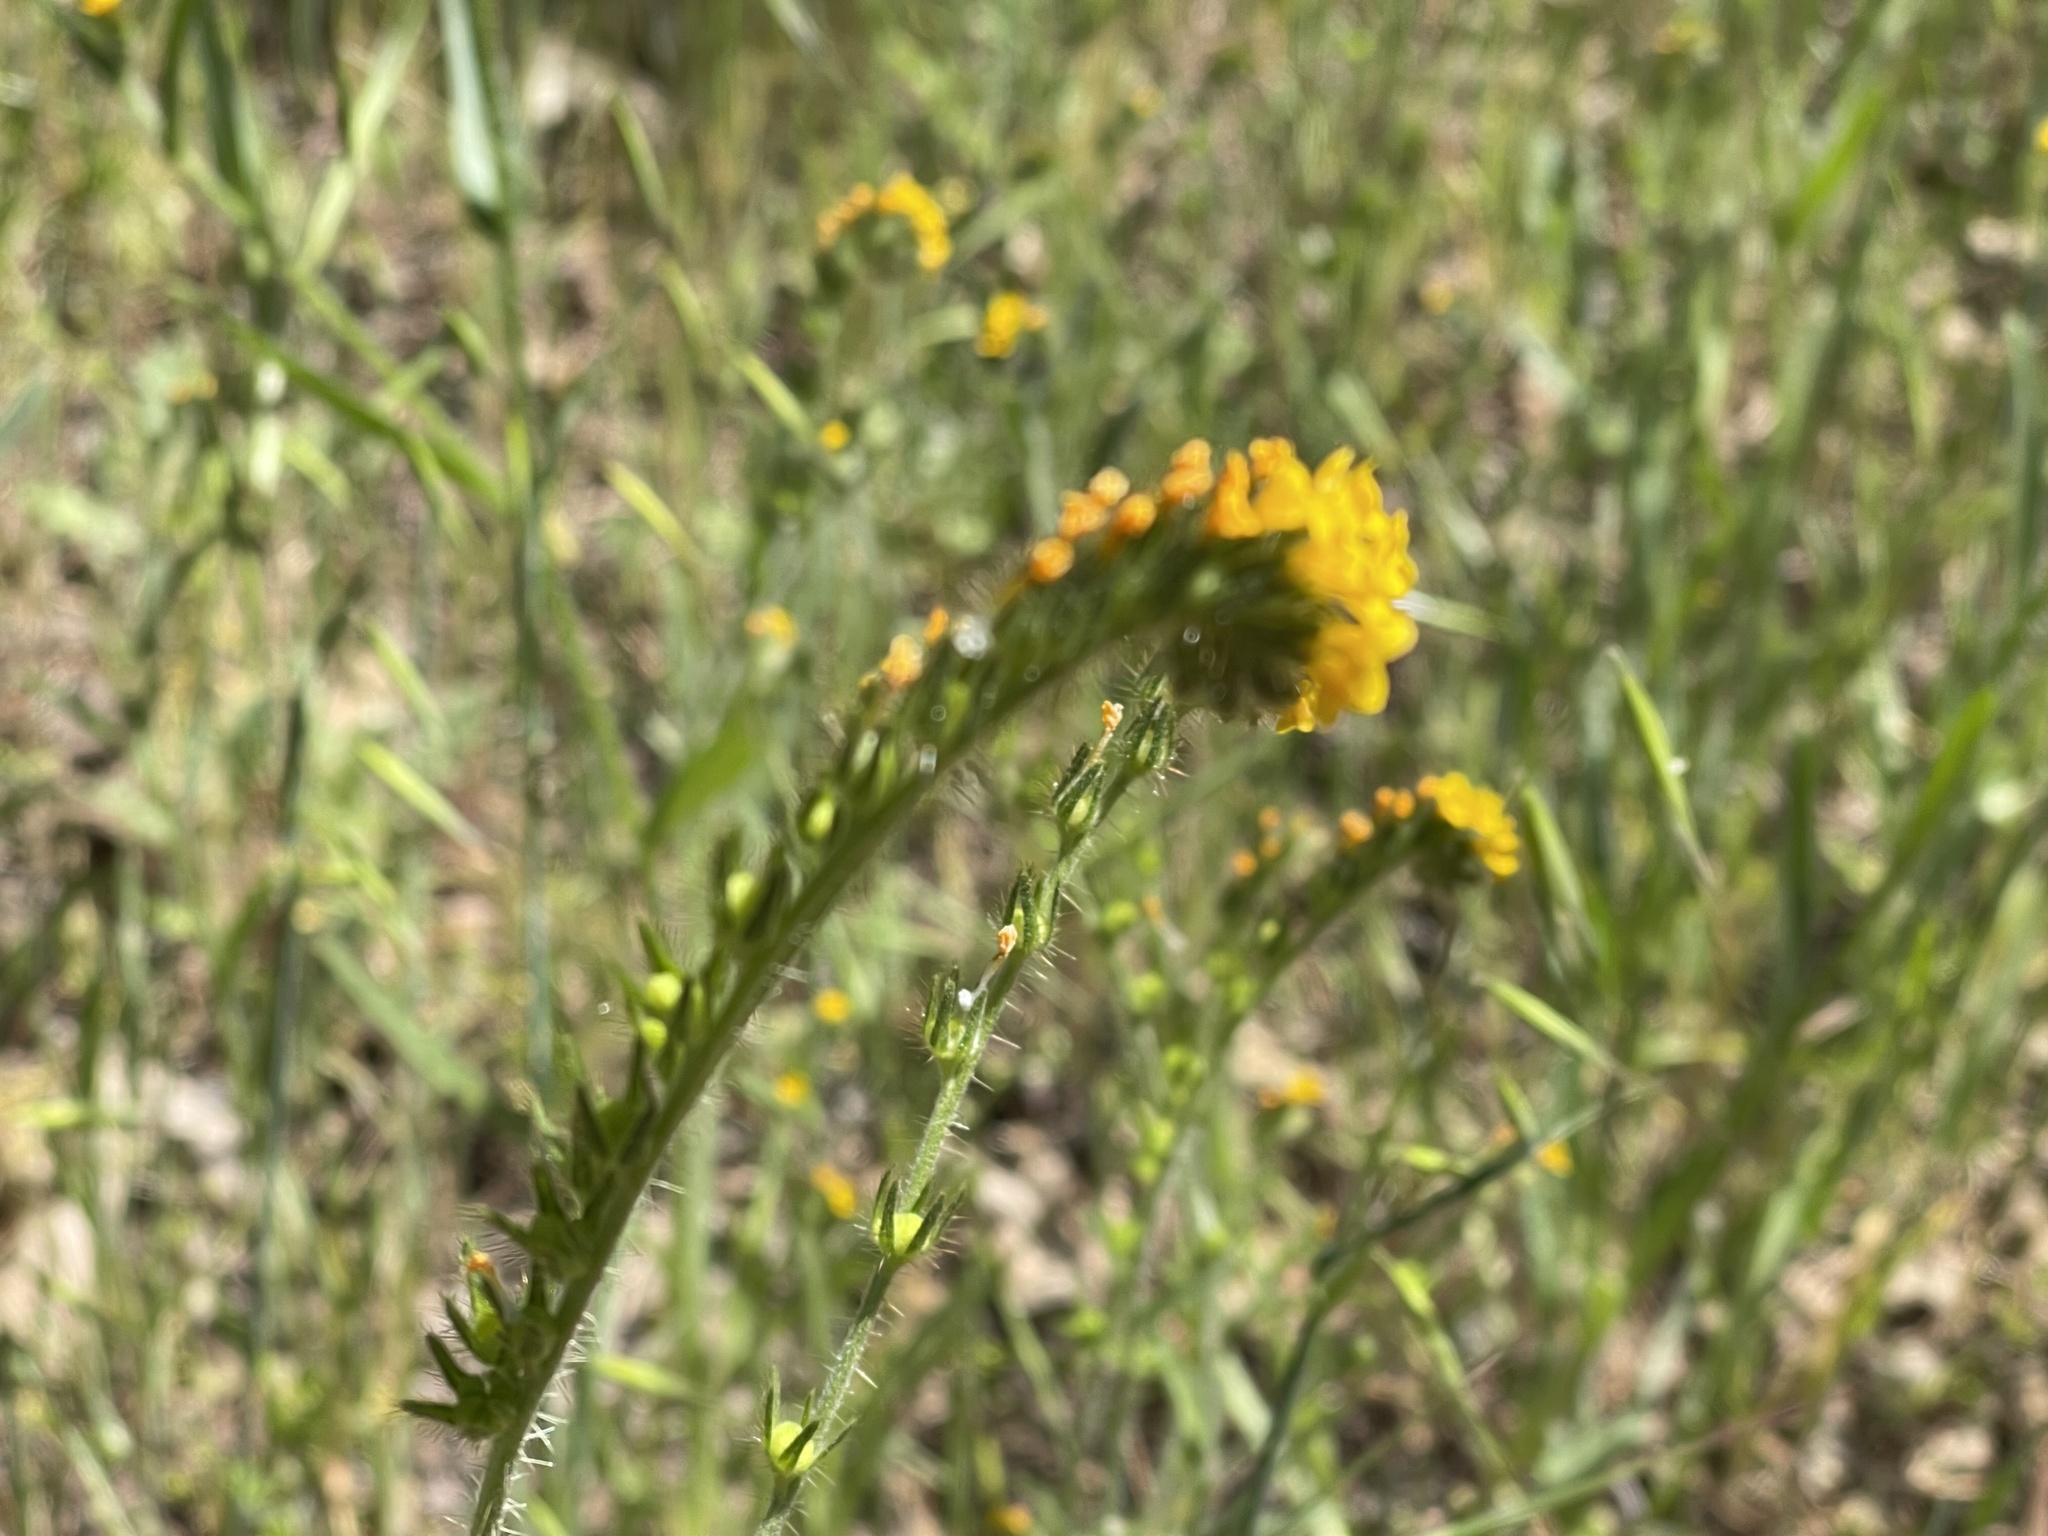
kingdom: Plantae
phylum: Tracheophyta
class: Magnoliopsida
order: Boraginales
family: Boraginaceae
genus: Amsinckia
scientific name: Amsinckia menziesii
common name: Menzies' fiddleneck
